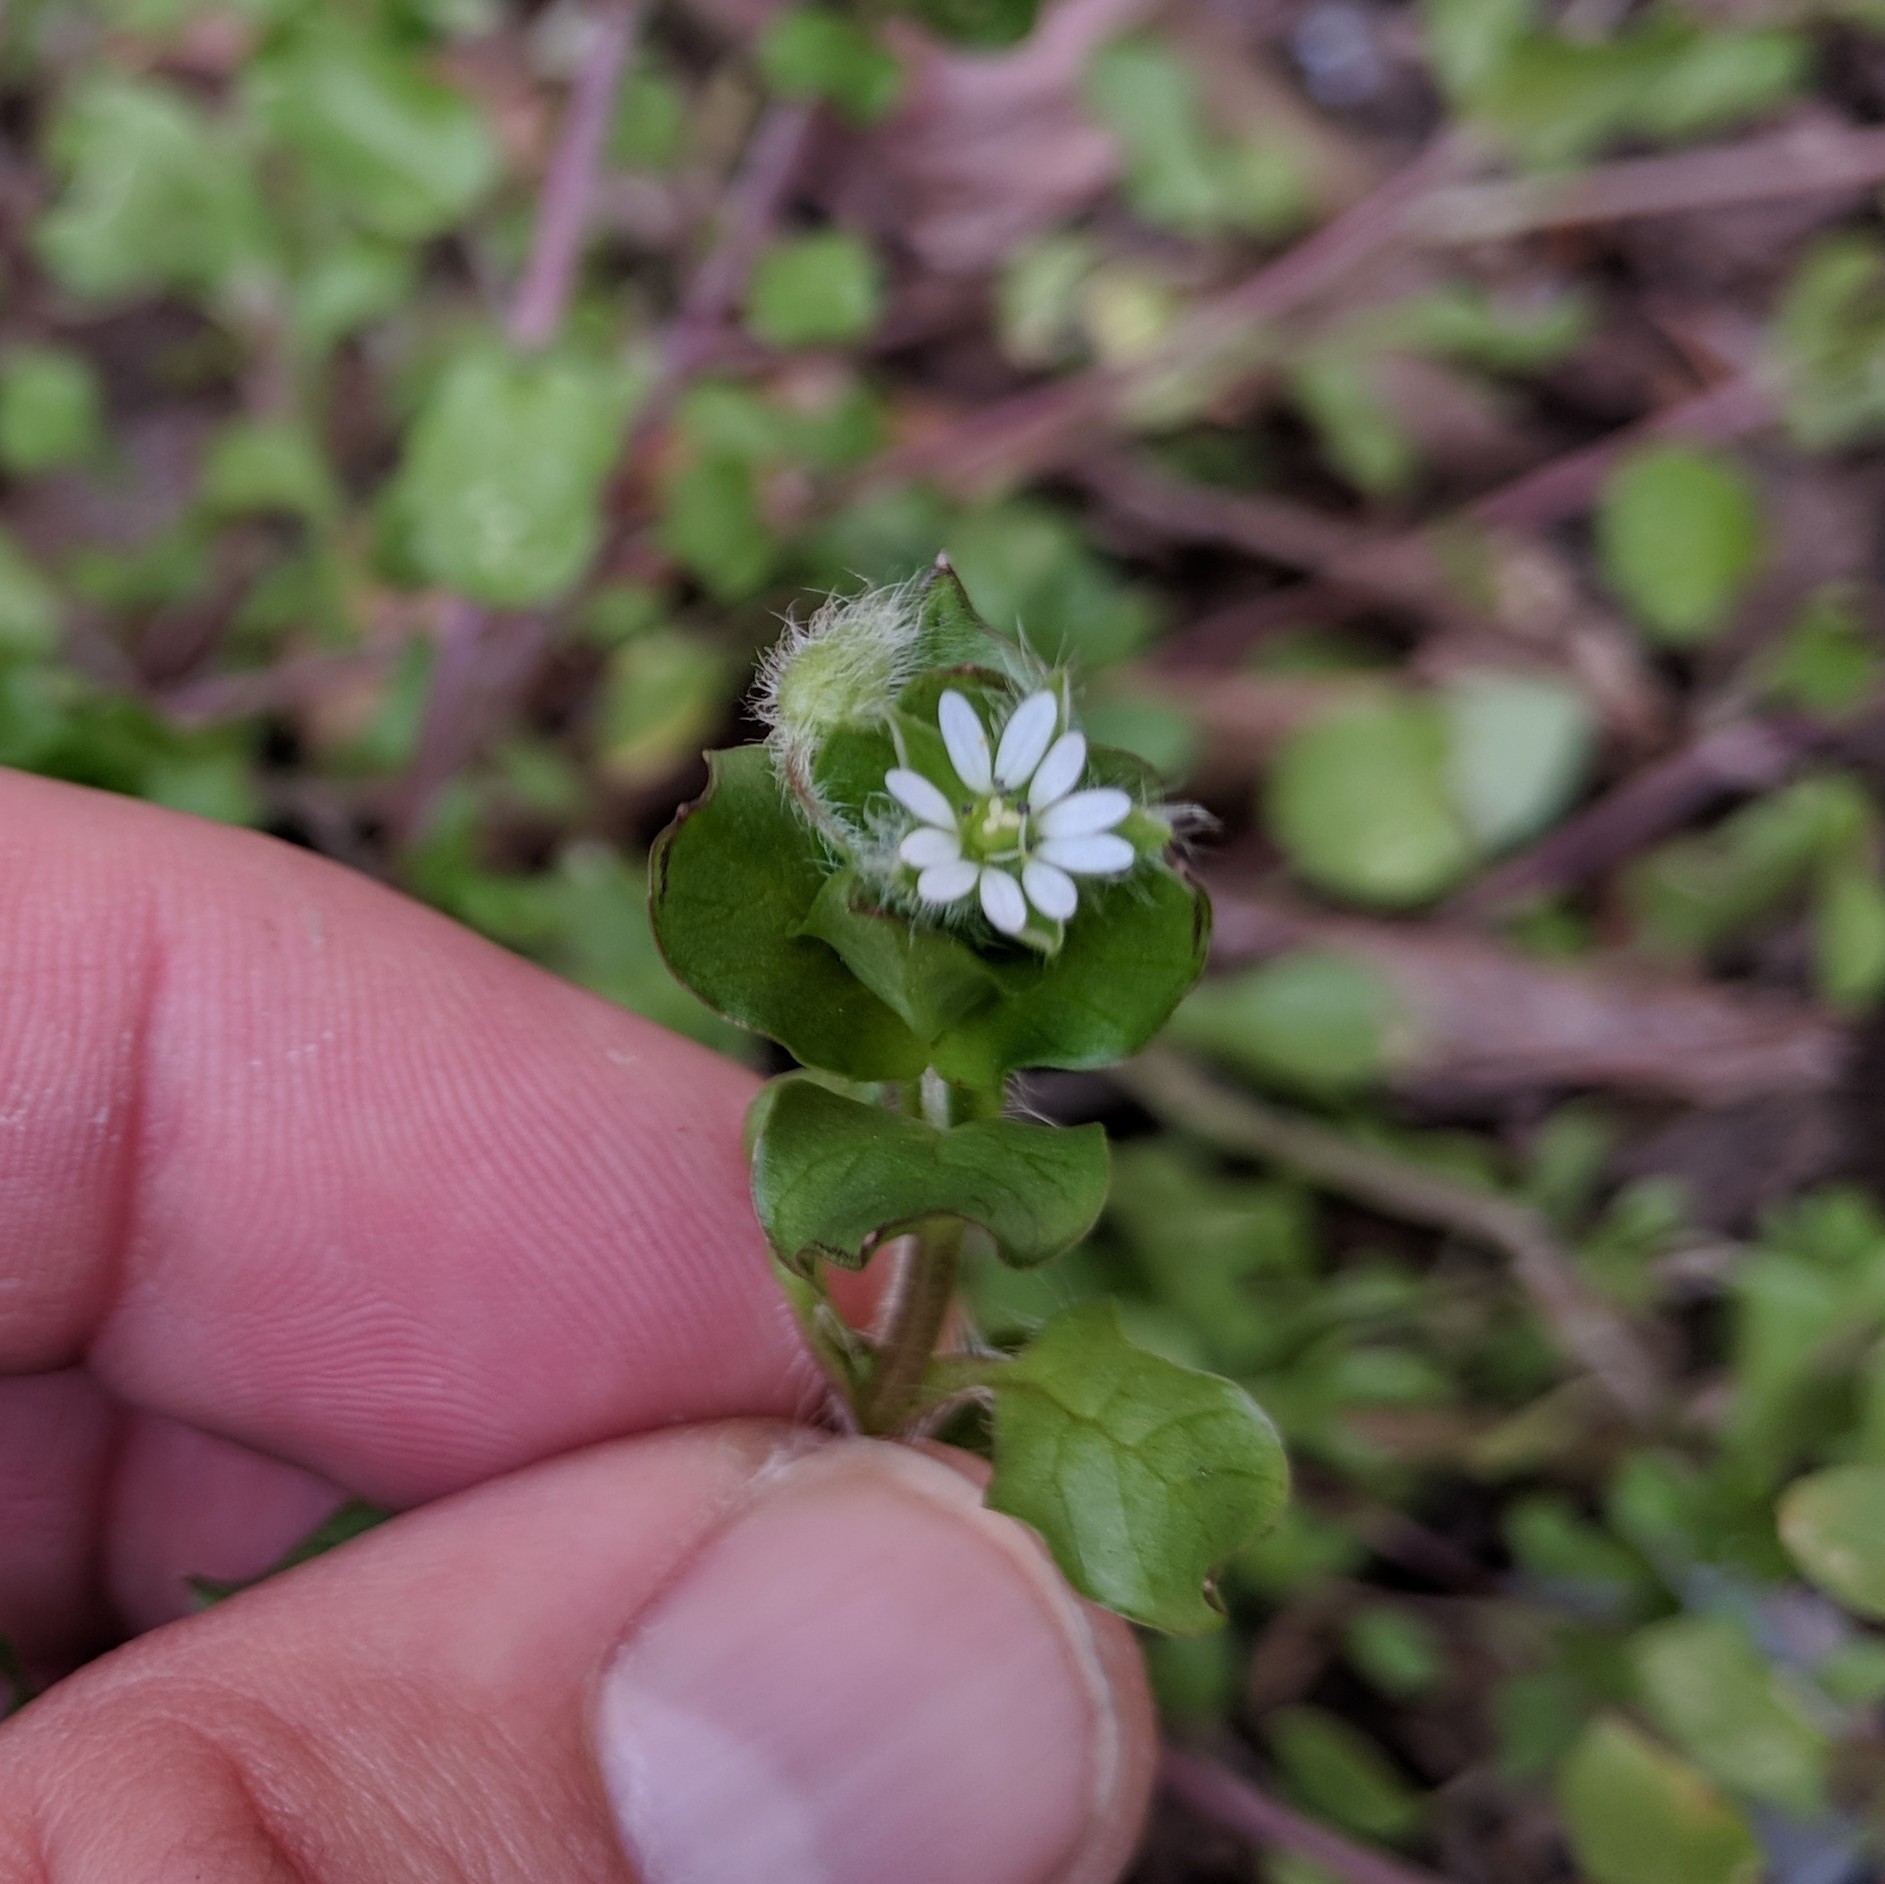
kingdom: Plantae
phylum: Tracheophyta
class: Magnoliopsida
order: Caryophyllales
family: Caryophyllaceae
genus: Stellaria
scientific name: Stellaria media
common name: Common chickweed
